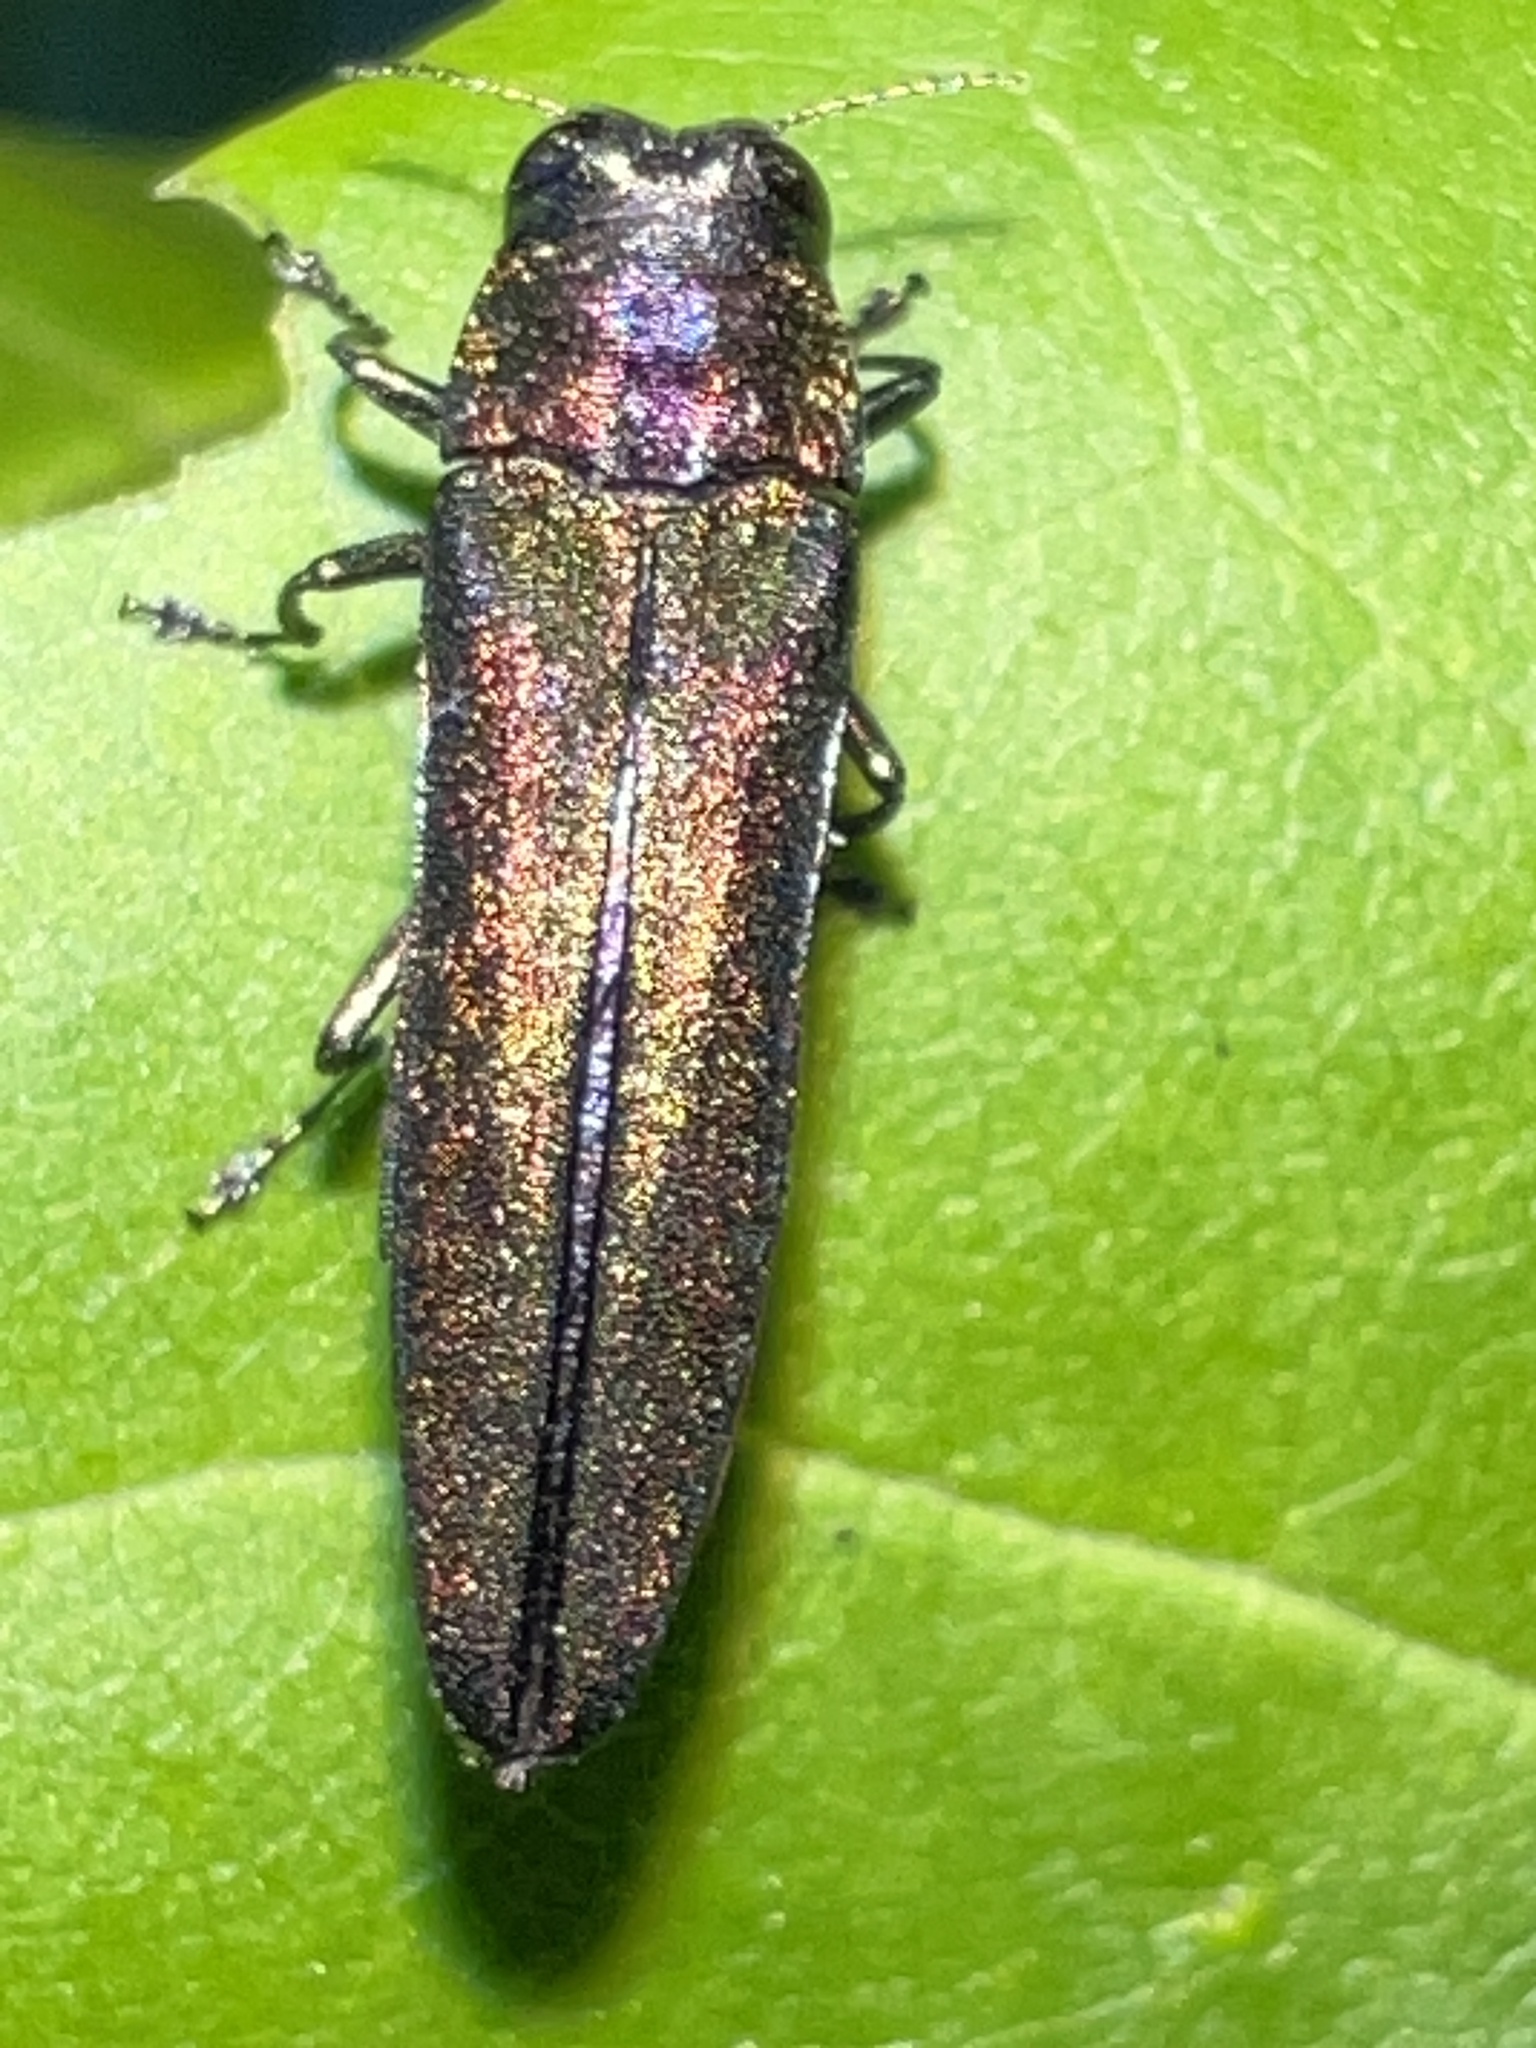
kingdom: Animalia
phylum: Arthropoda
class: Insecta
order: Coleoptera
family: Buprestidae
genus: Agrilus
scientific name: Agrilus planipennis
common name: Emerald ash borer
